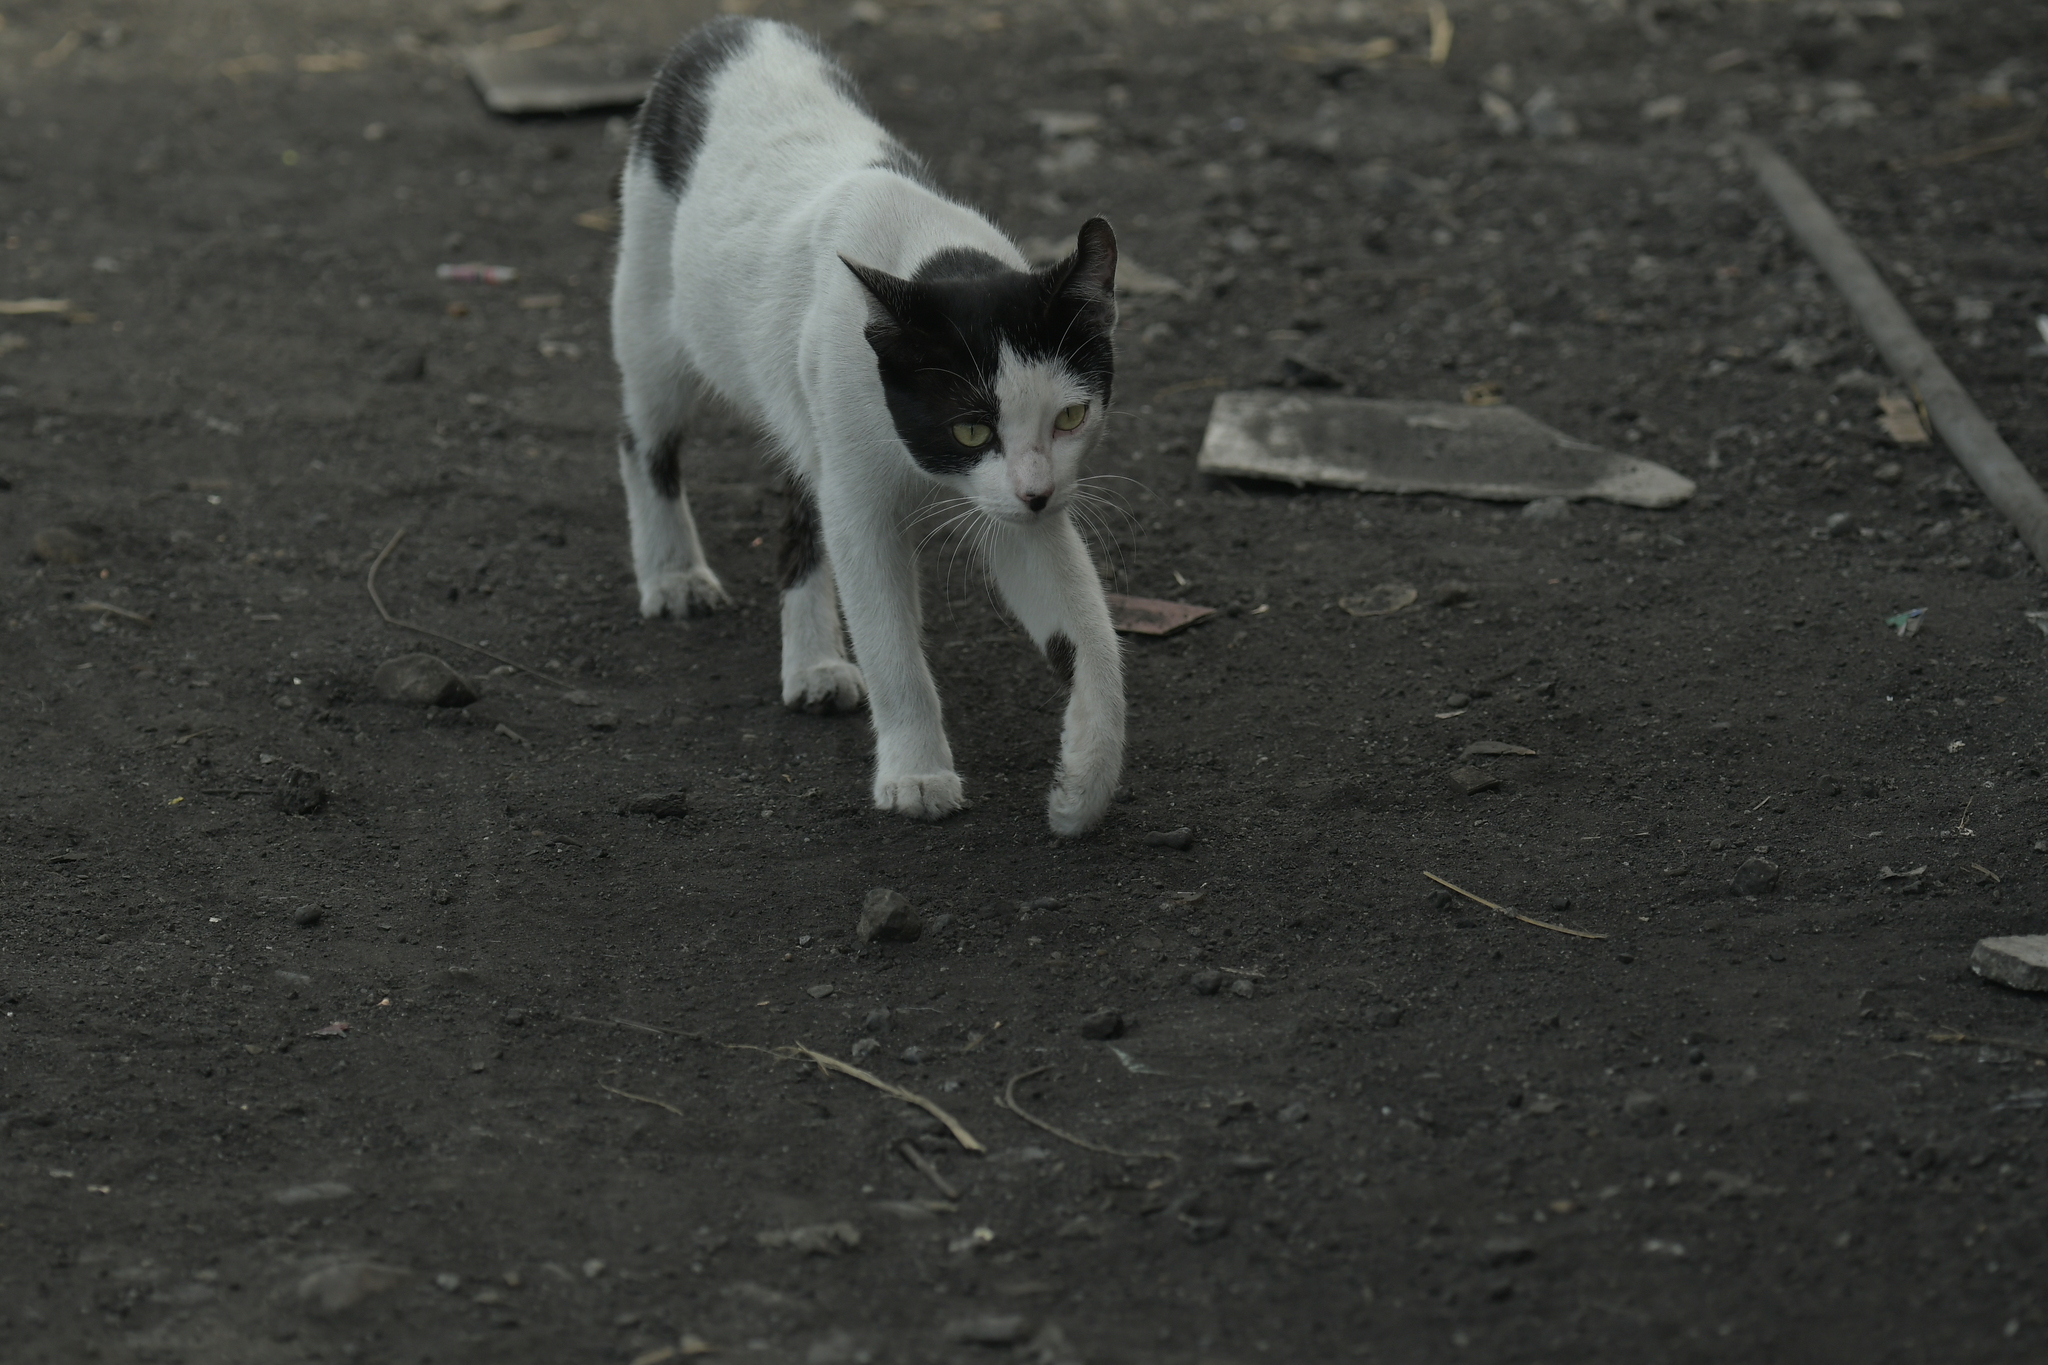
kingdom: Animalia
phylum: Chordata
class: Mammalia
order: Carnivora
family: Felidae
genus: Felis
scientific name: Felis catus
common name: Domestic cat
